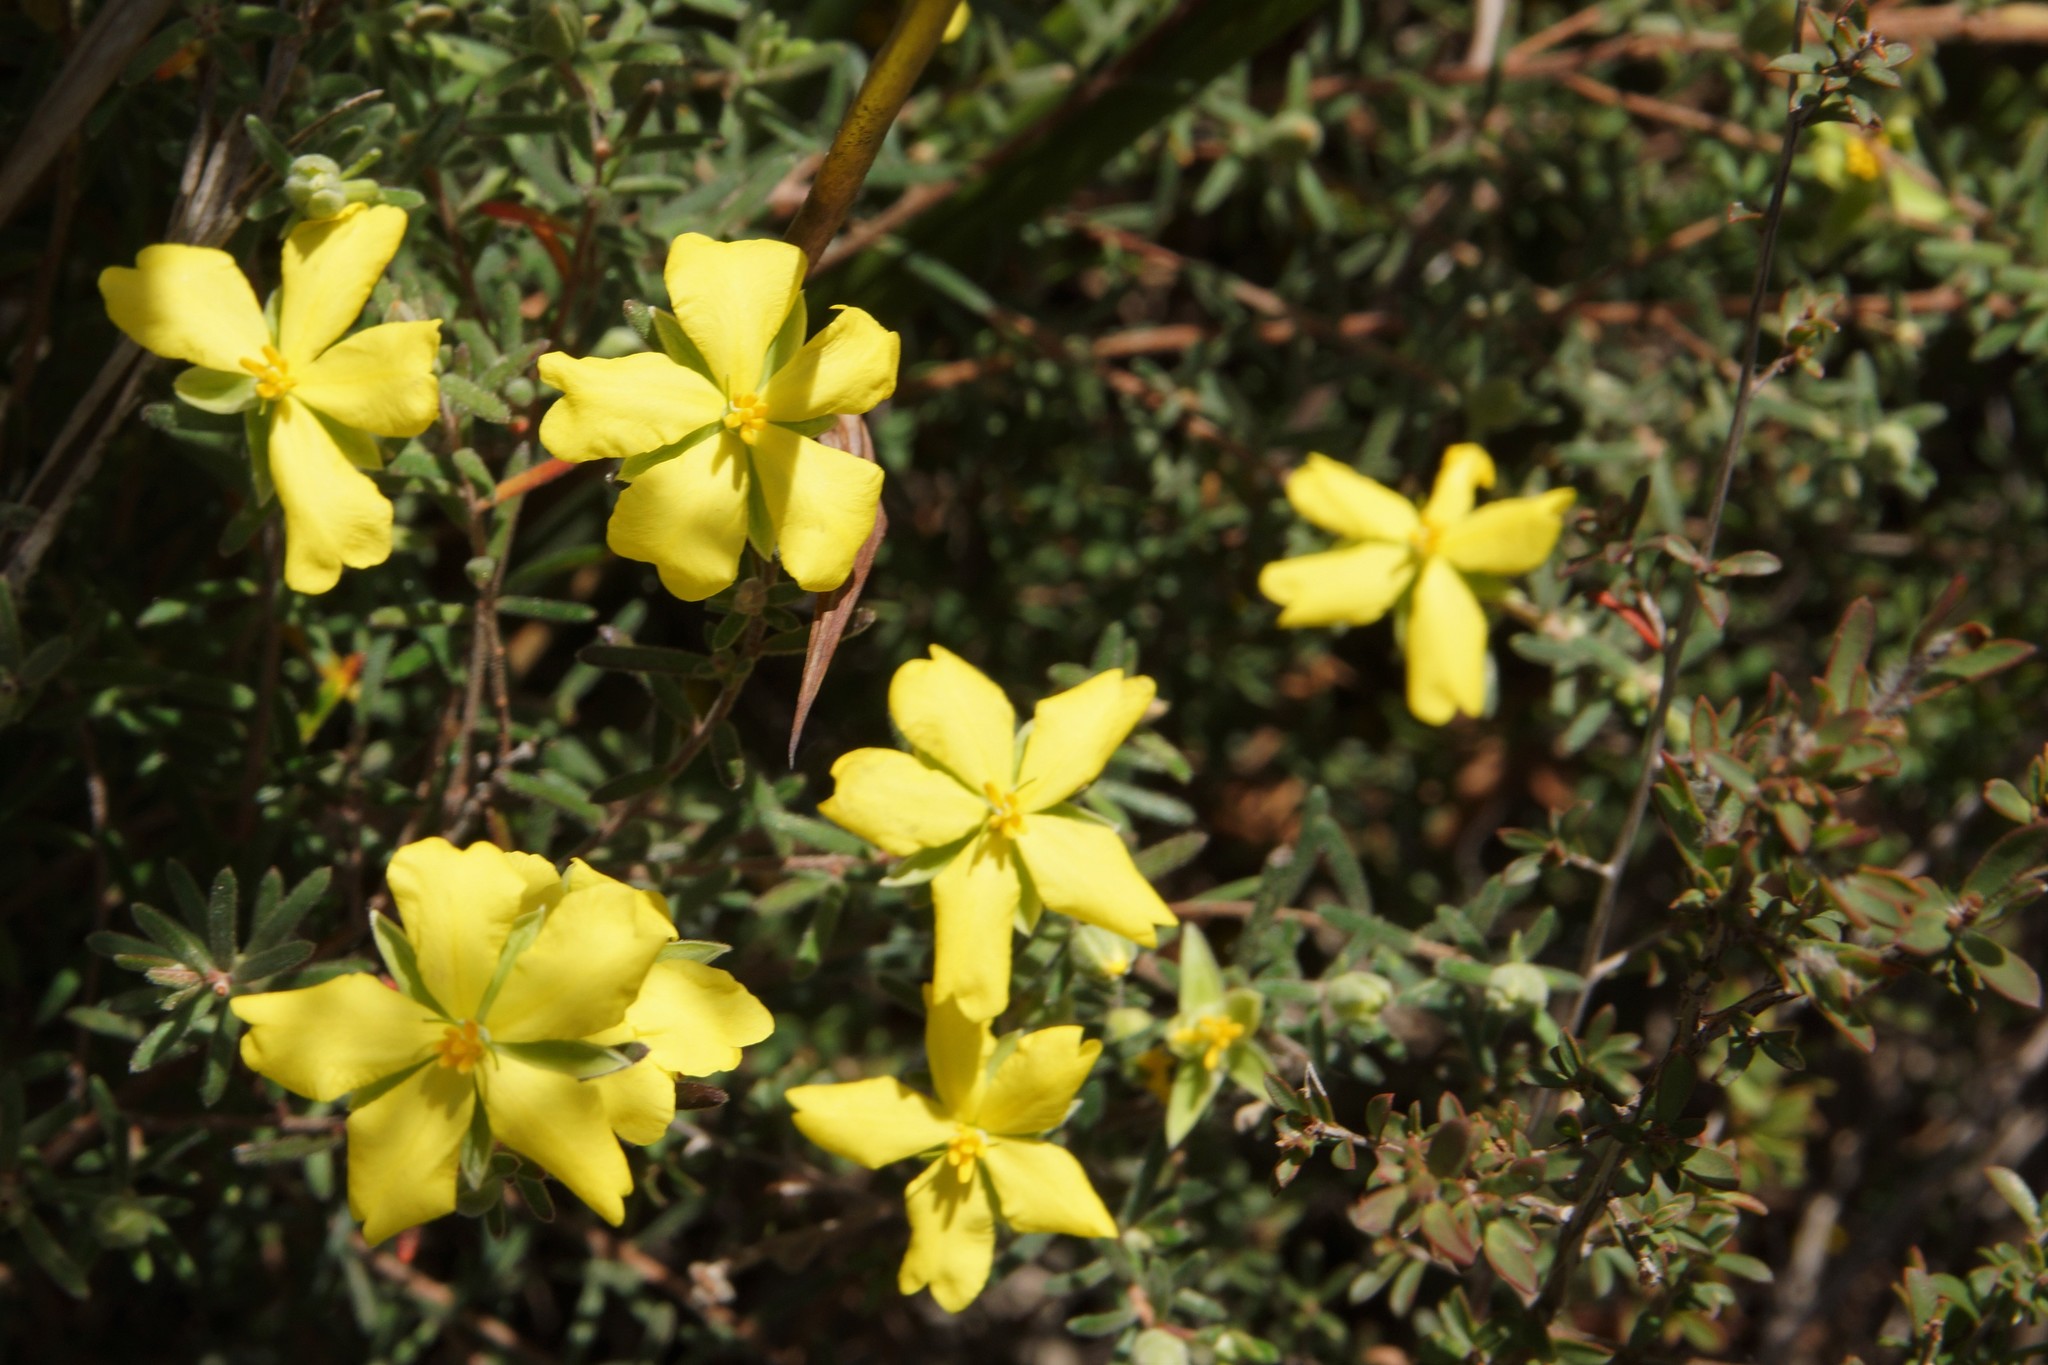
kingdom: Plantae
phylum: Tracheophyta
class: Magnoliopsida
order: Dilleniales
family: Dilleniaceae
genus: Hibbertia
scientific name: Hibbertia riparia
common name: Erect guinea-flower
